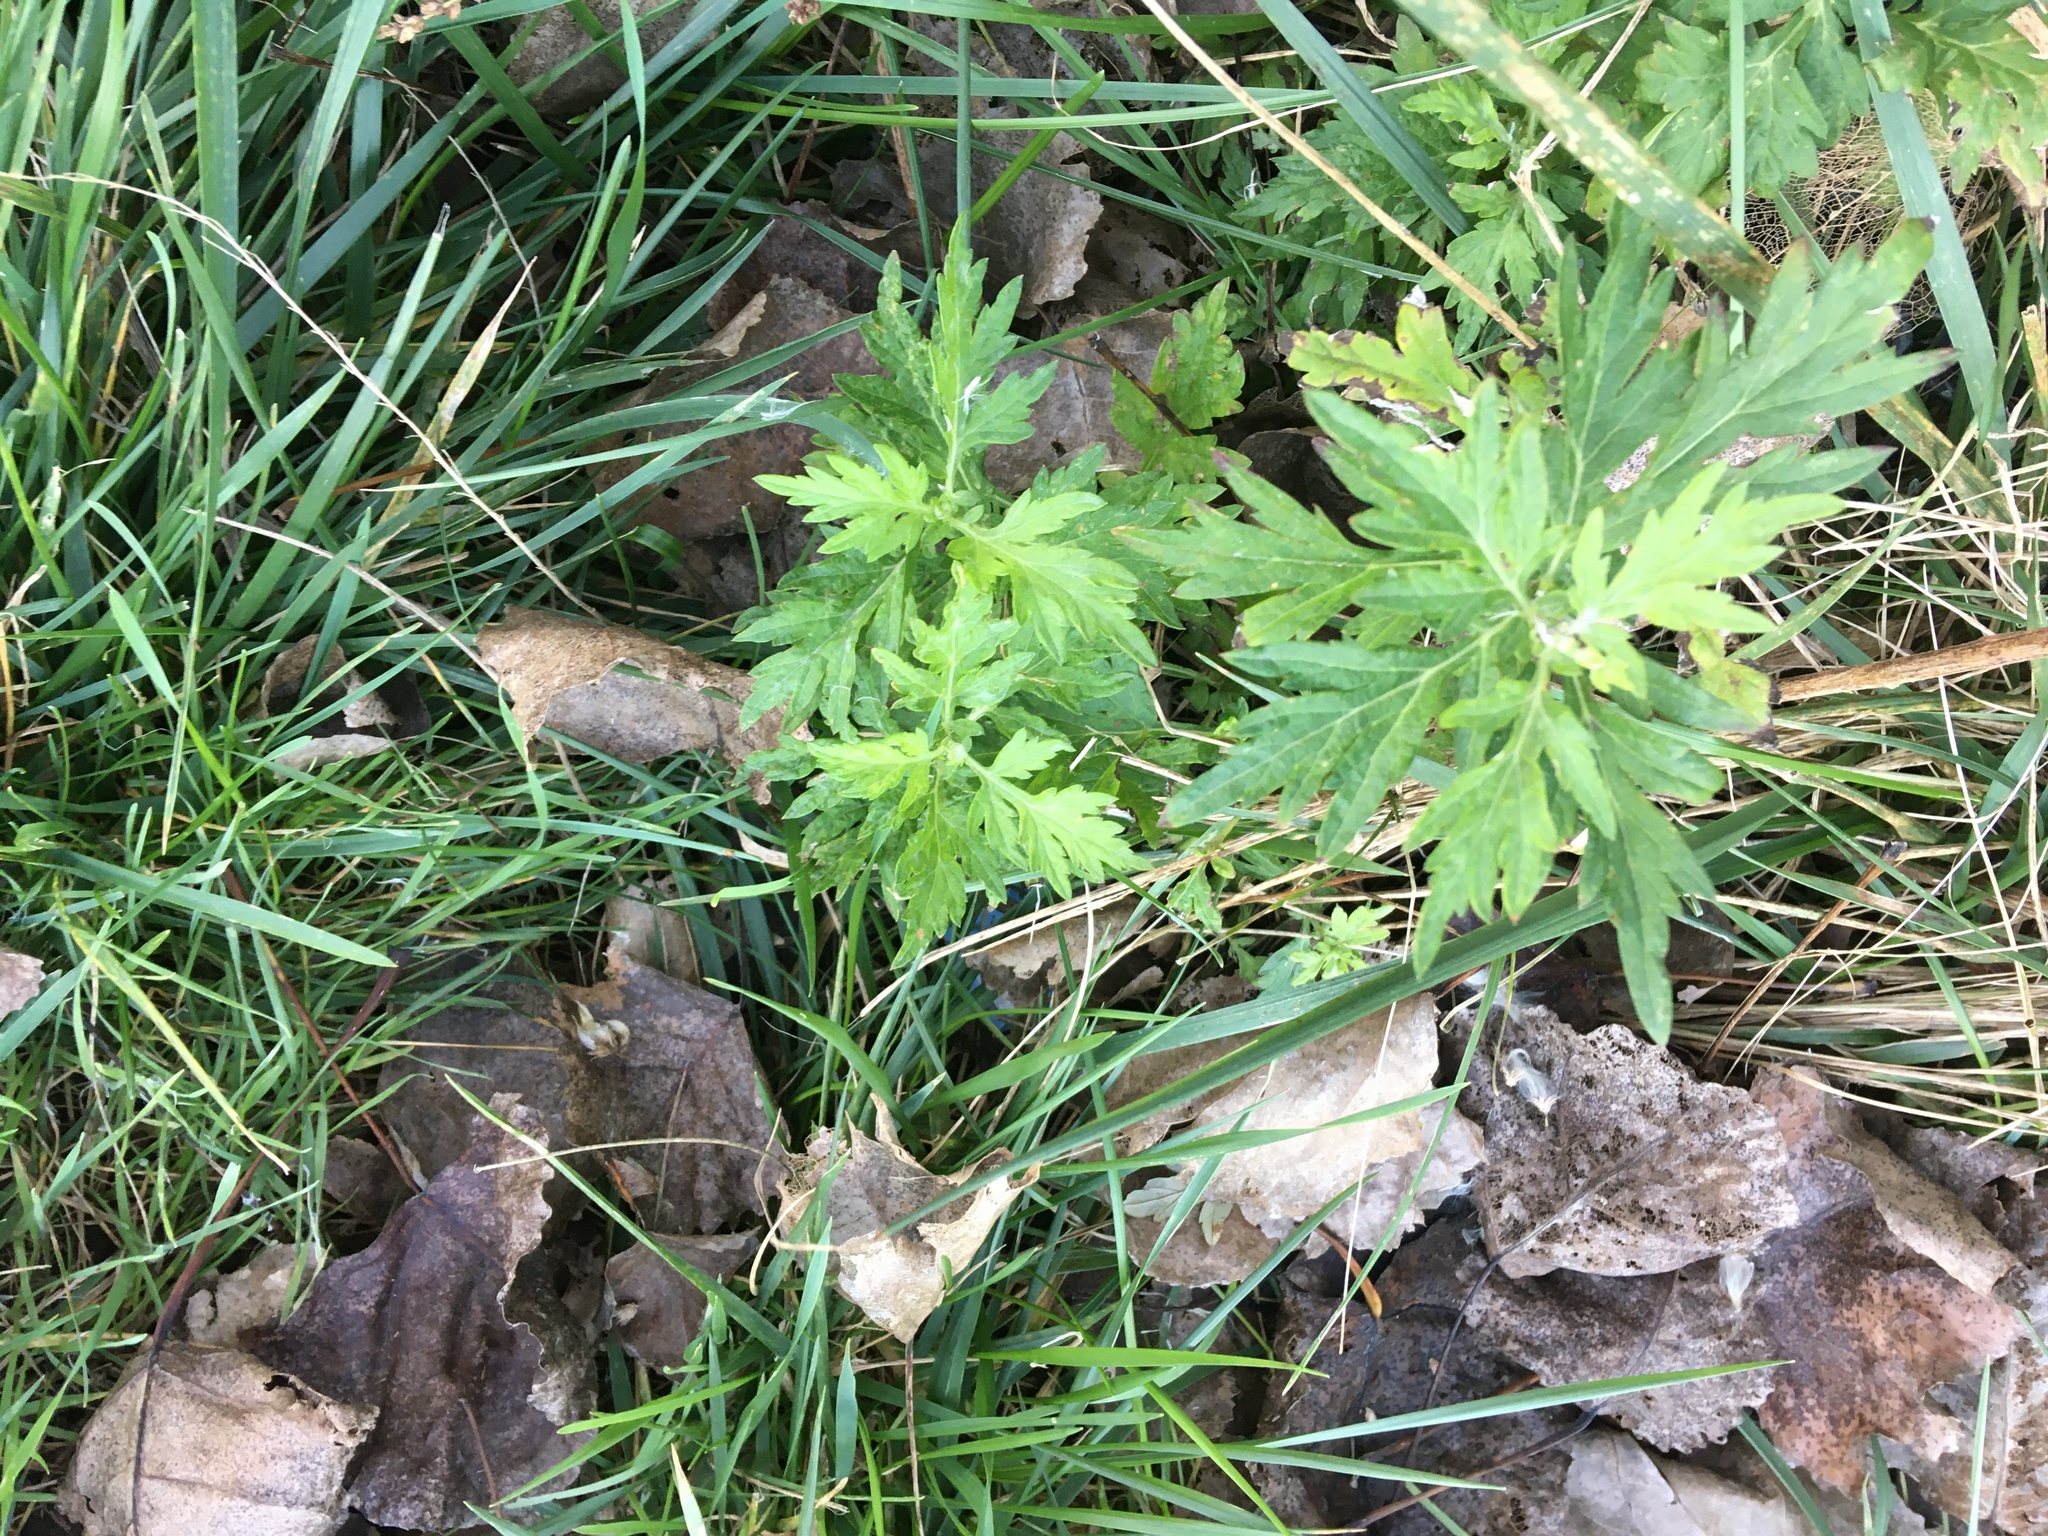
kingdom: Plantae
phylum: Tracheophyta
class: Magnoliopsida
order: Asterales
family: Asteraceae
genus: Artemisia
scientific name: Artemisia vulgaris
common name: Mugwort
